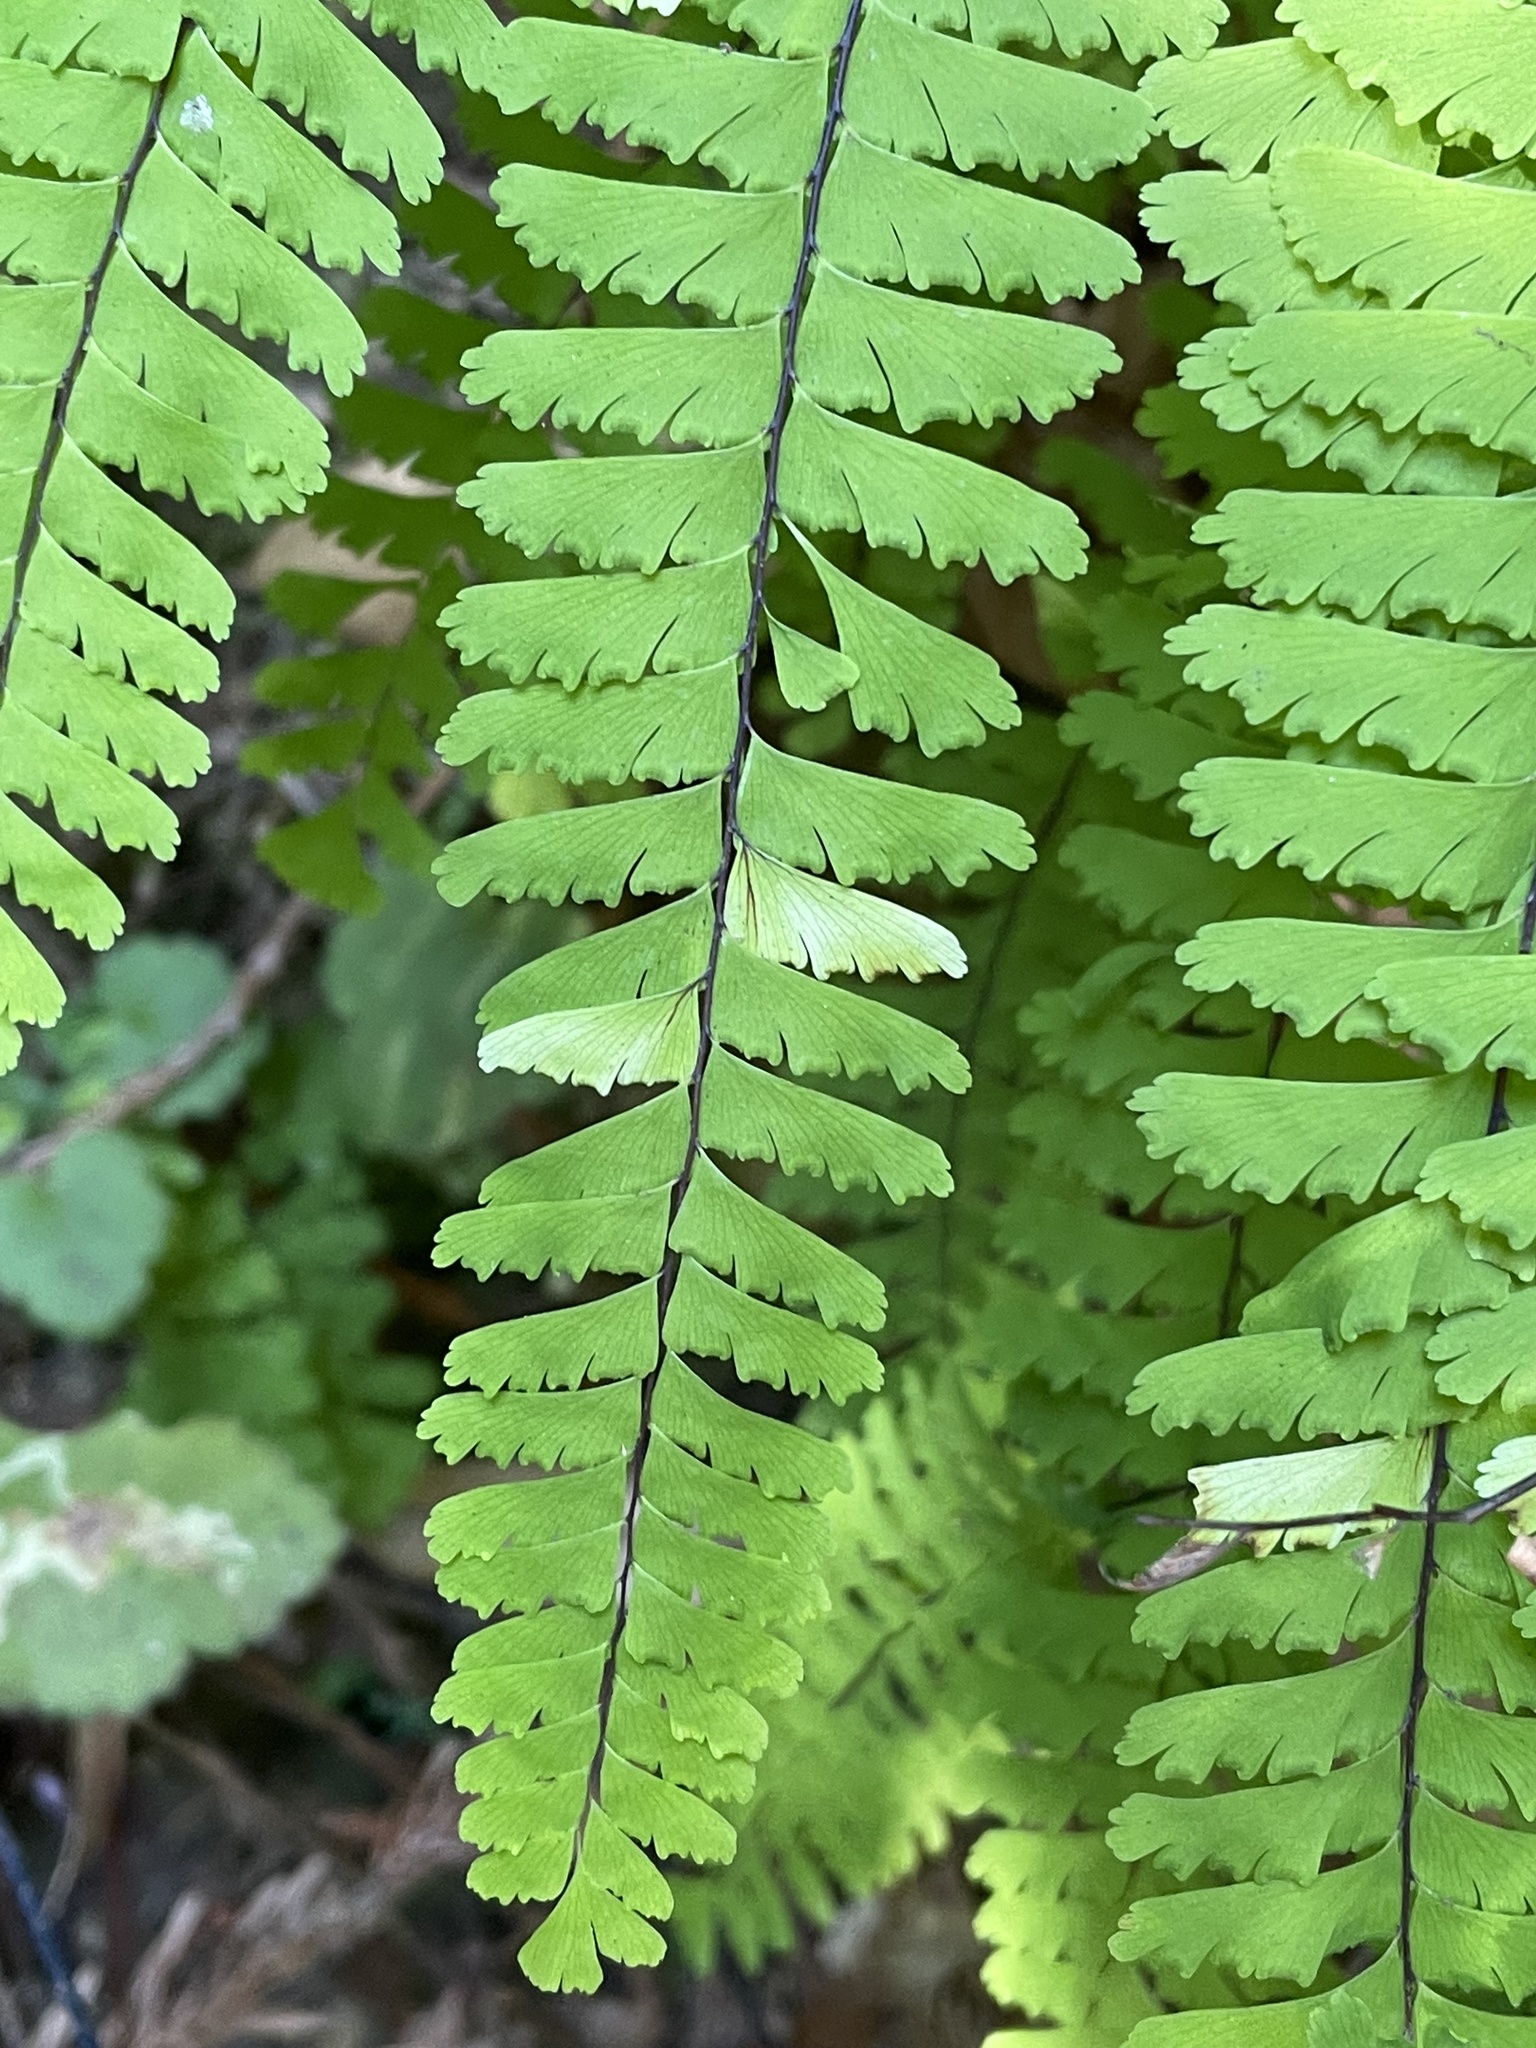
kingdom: Plantae
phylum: Tracheophyta
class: Polypodiopsida
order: Polypodiales
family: Pteridaceae
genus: Adiantum
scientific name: Adiantum aleuticum
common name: Aleutian maidenhair fern
